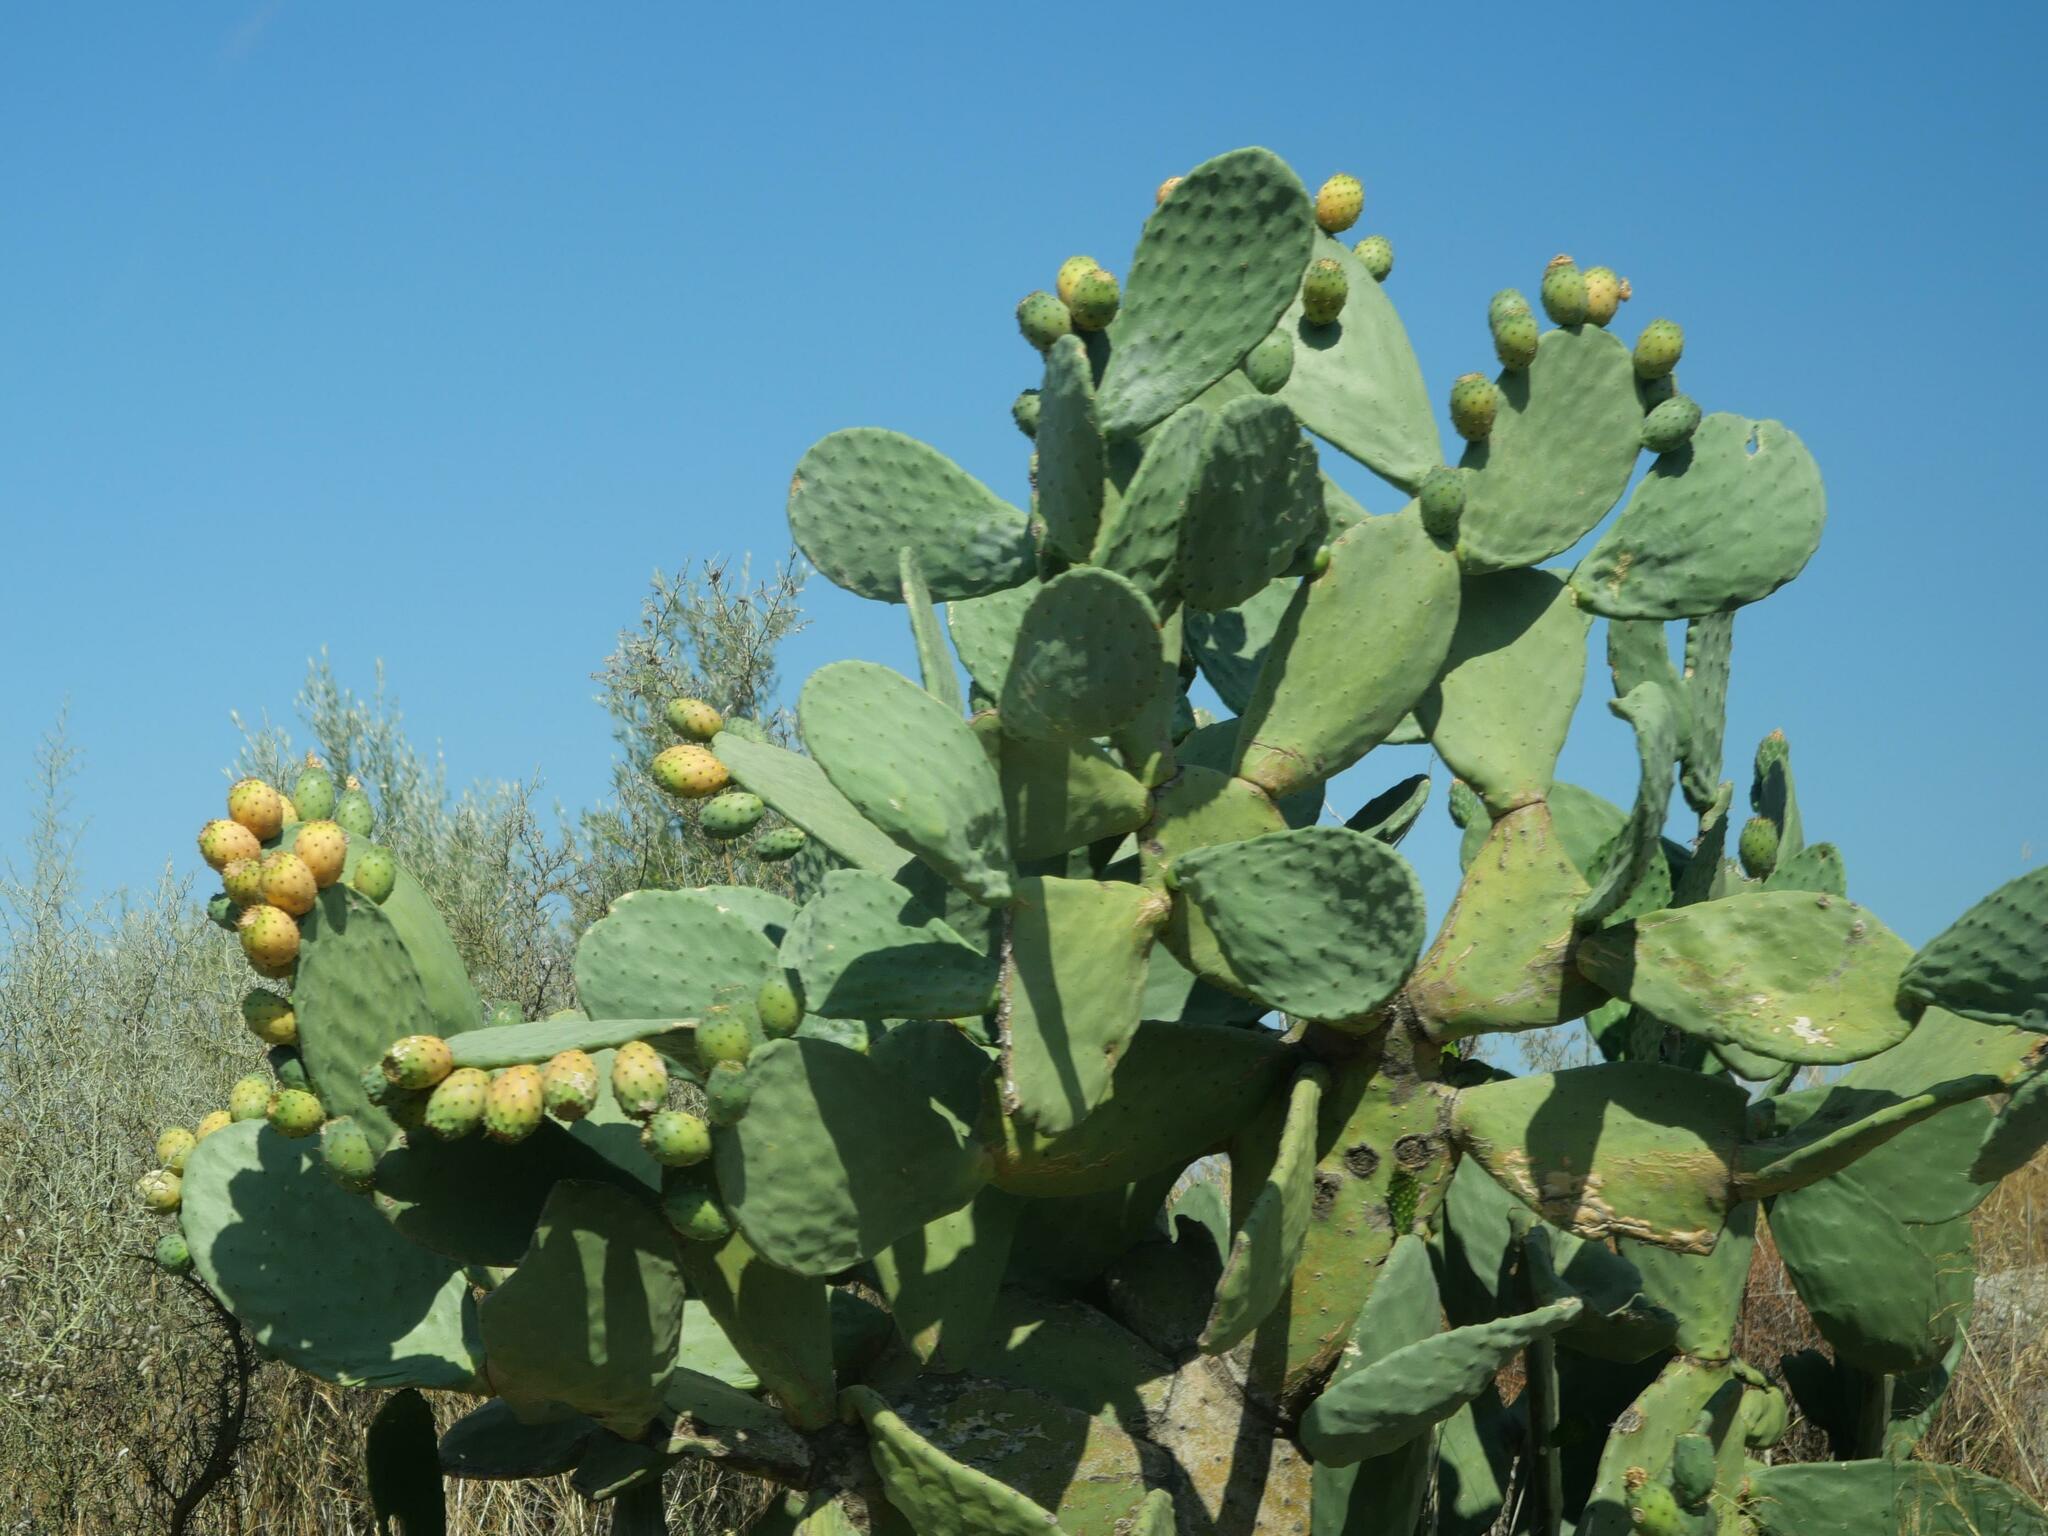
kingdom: Plantae
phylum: Tracheophyta
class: Magnoliopsida
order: Caryophyllales
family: Cactaceae
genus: Opuntia
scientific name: Opuntia ficus-indica
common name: Barbary fig
